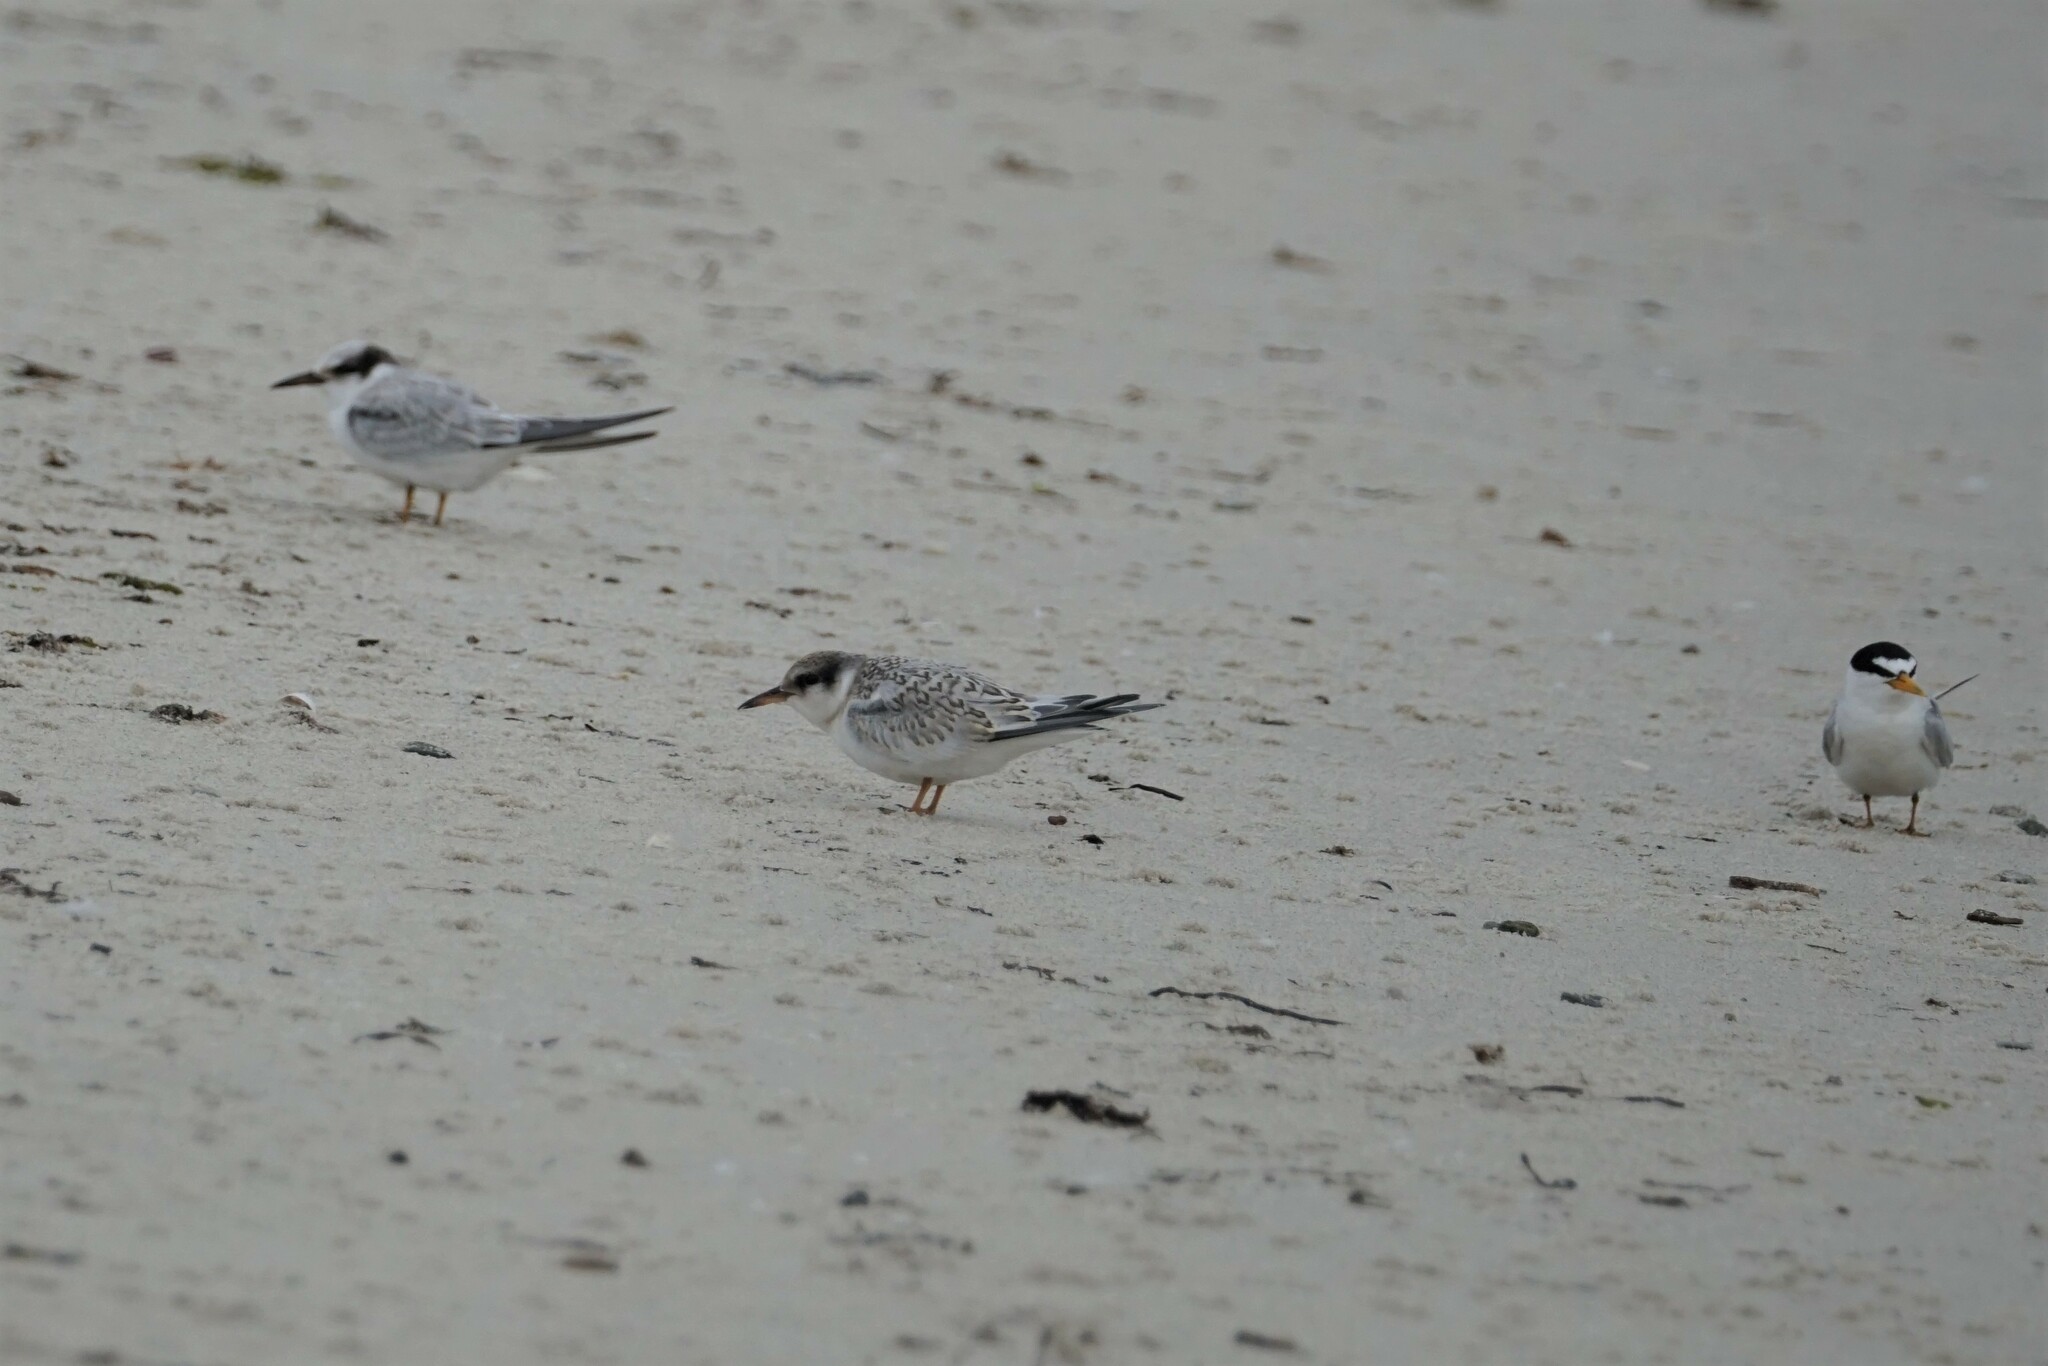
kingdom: Animalia
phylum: Chordata
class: Aves
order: Charadriiformes
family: Laridae
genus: Sternula
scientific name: Sternula antillarum
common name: Least tern
